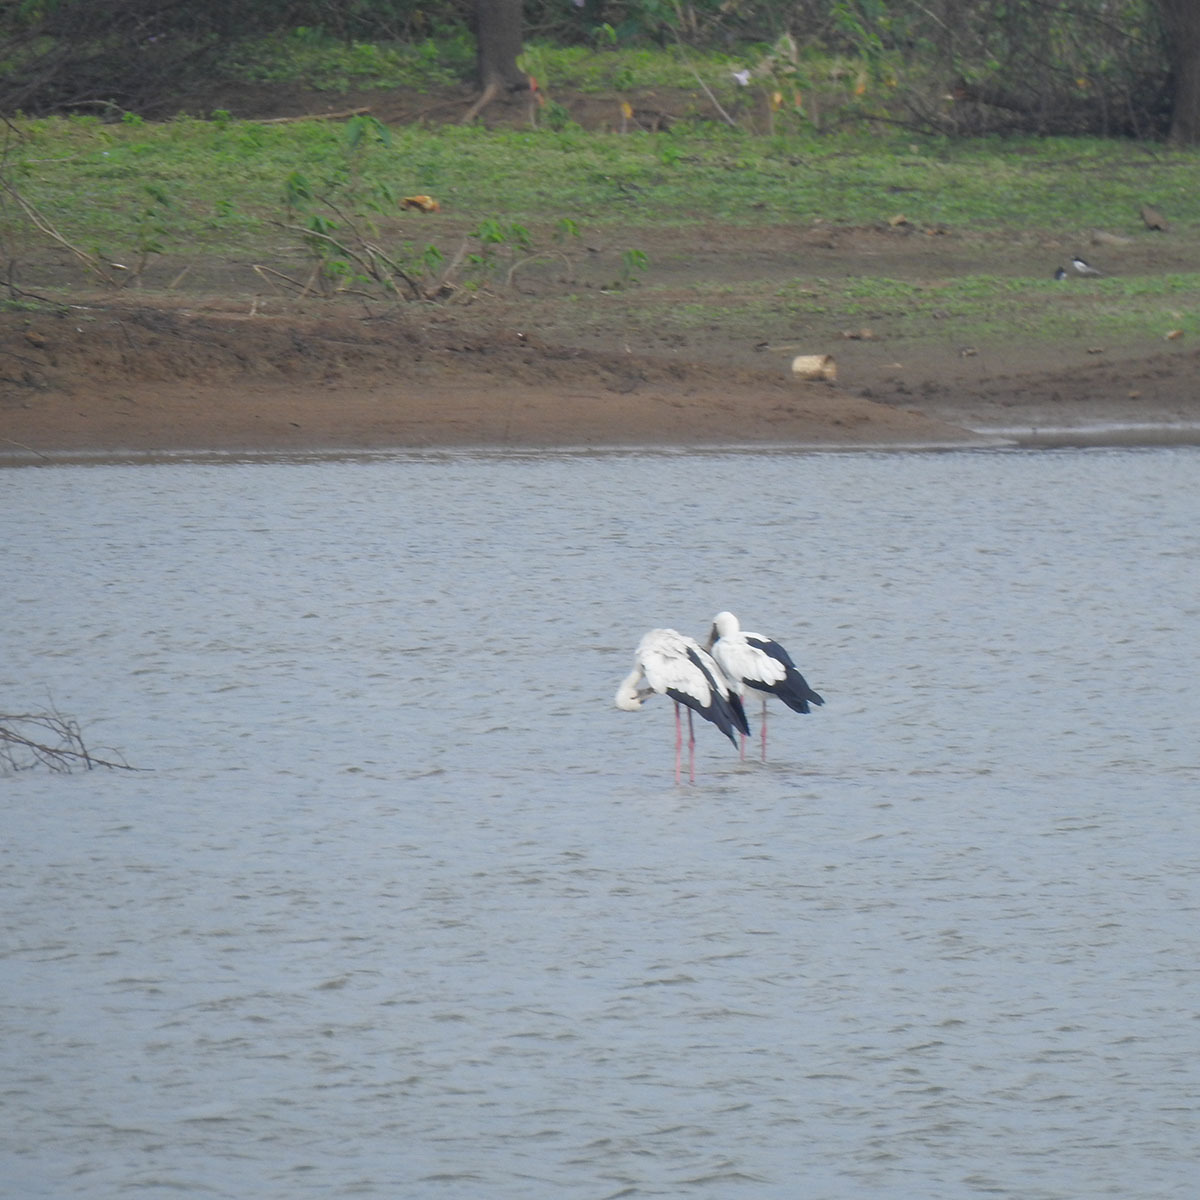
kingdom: Animalia
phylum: Chordata
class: Aves
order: Ciconiiformes
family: Ciconiidae
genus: Anastomus
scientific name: Anastomus oscitans
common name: Asian openbill
